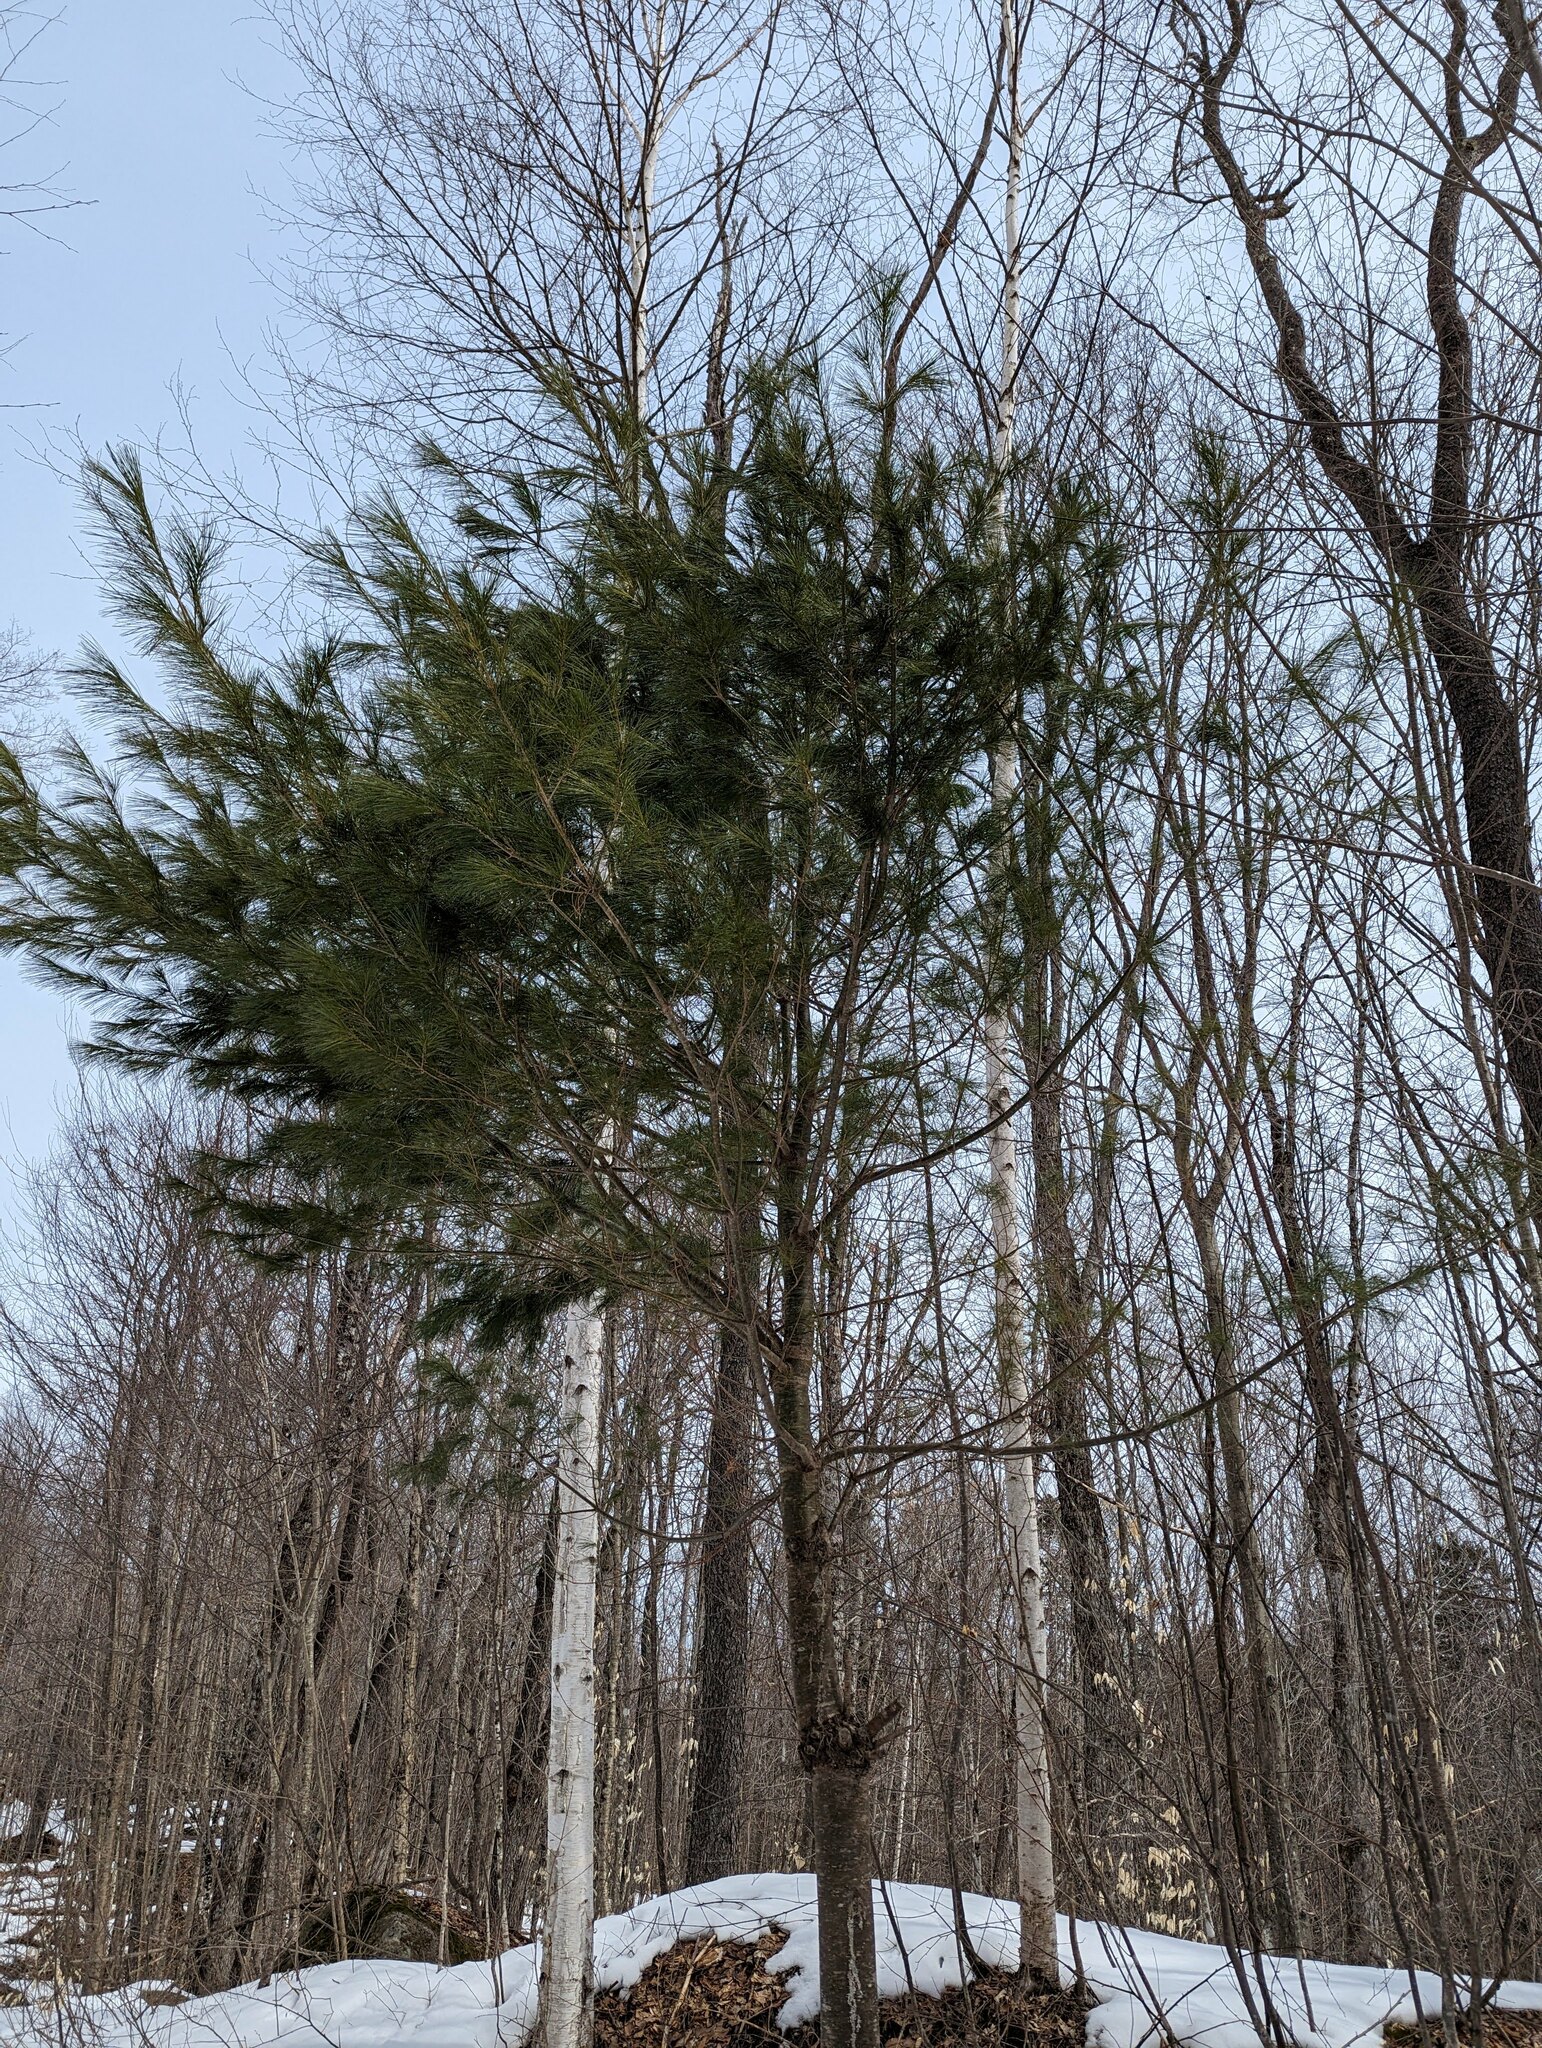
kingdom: Plantae
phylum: Tracheophyta
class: Pinopsida
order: Pinales
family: Pinaceae
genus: Pinus
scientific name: Pinus strobus
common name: Weymouth pine
